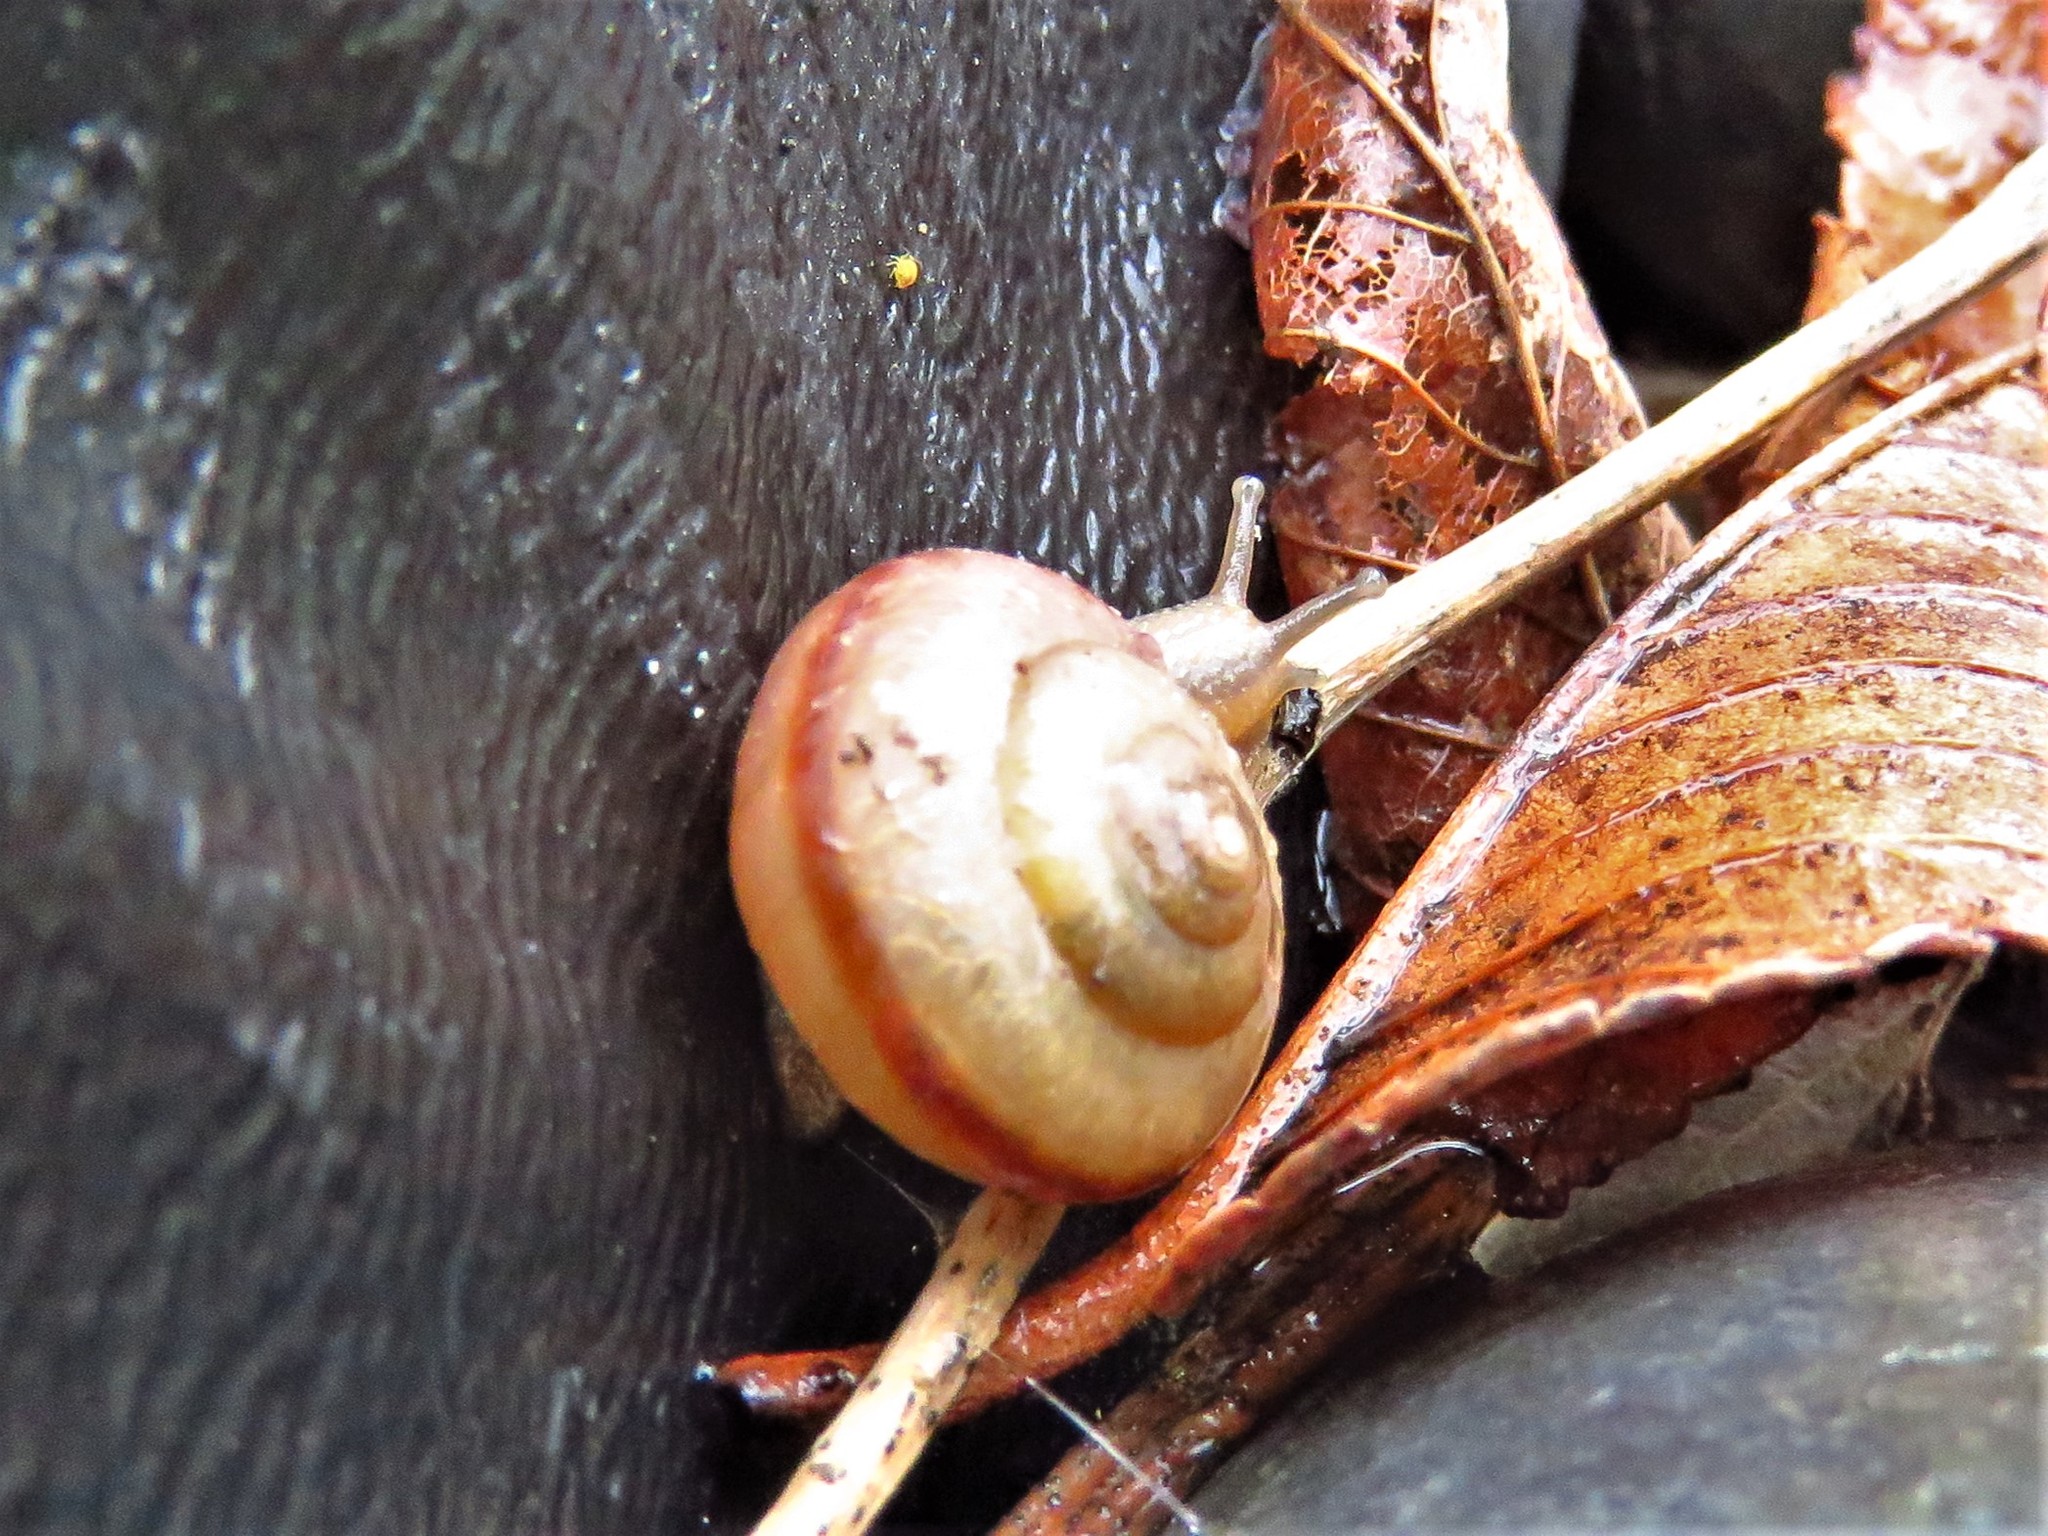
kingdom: Animalia
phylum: Mollusca
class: Gastropoda
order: Stylommatophora
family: Camaenidae
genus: Bradybaena
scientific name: Bradybaena similaris
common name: Asian trampsnail
